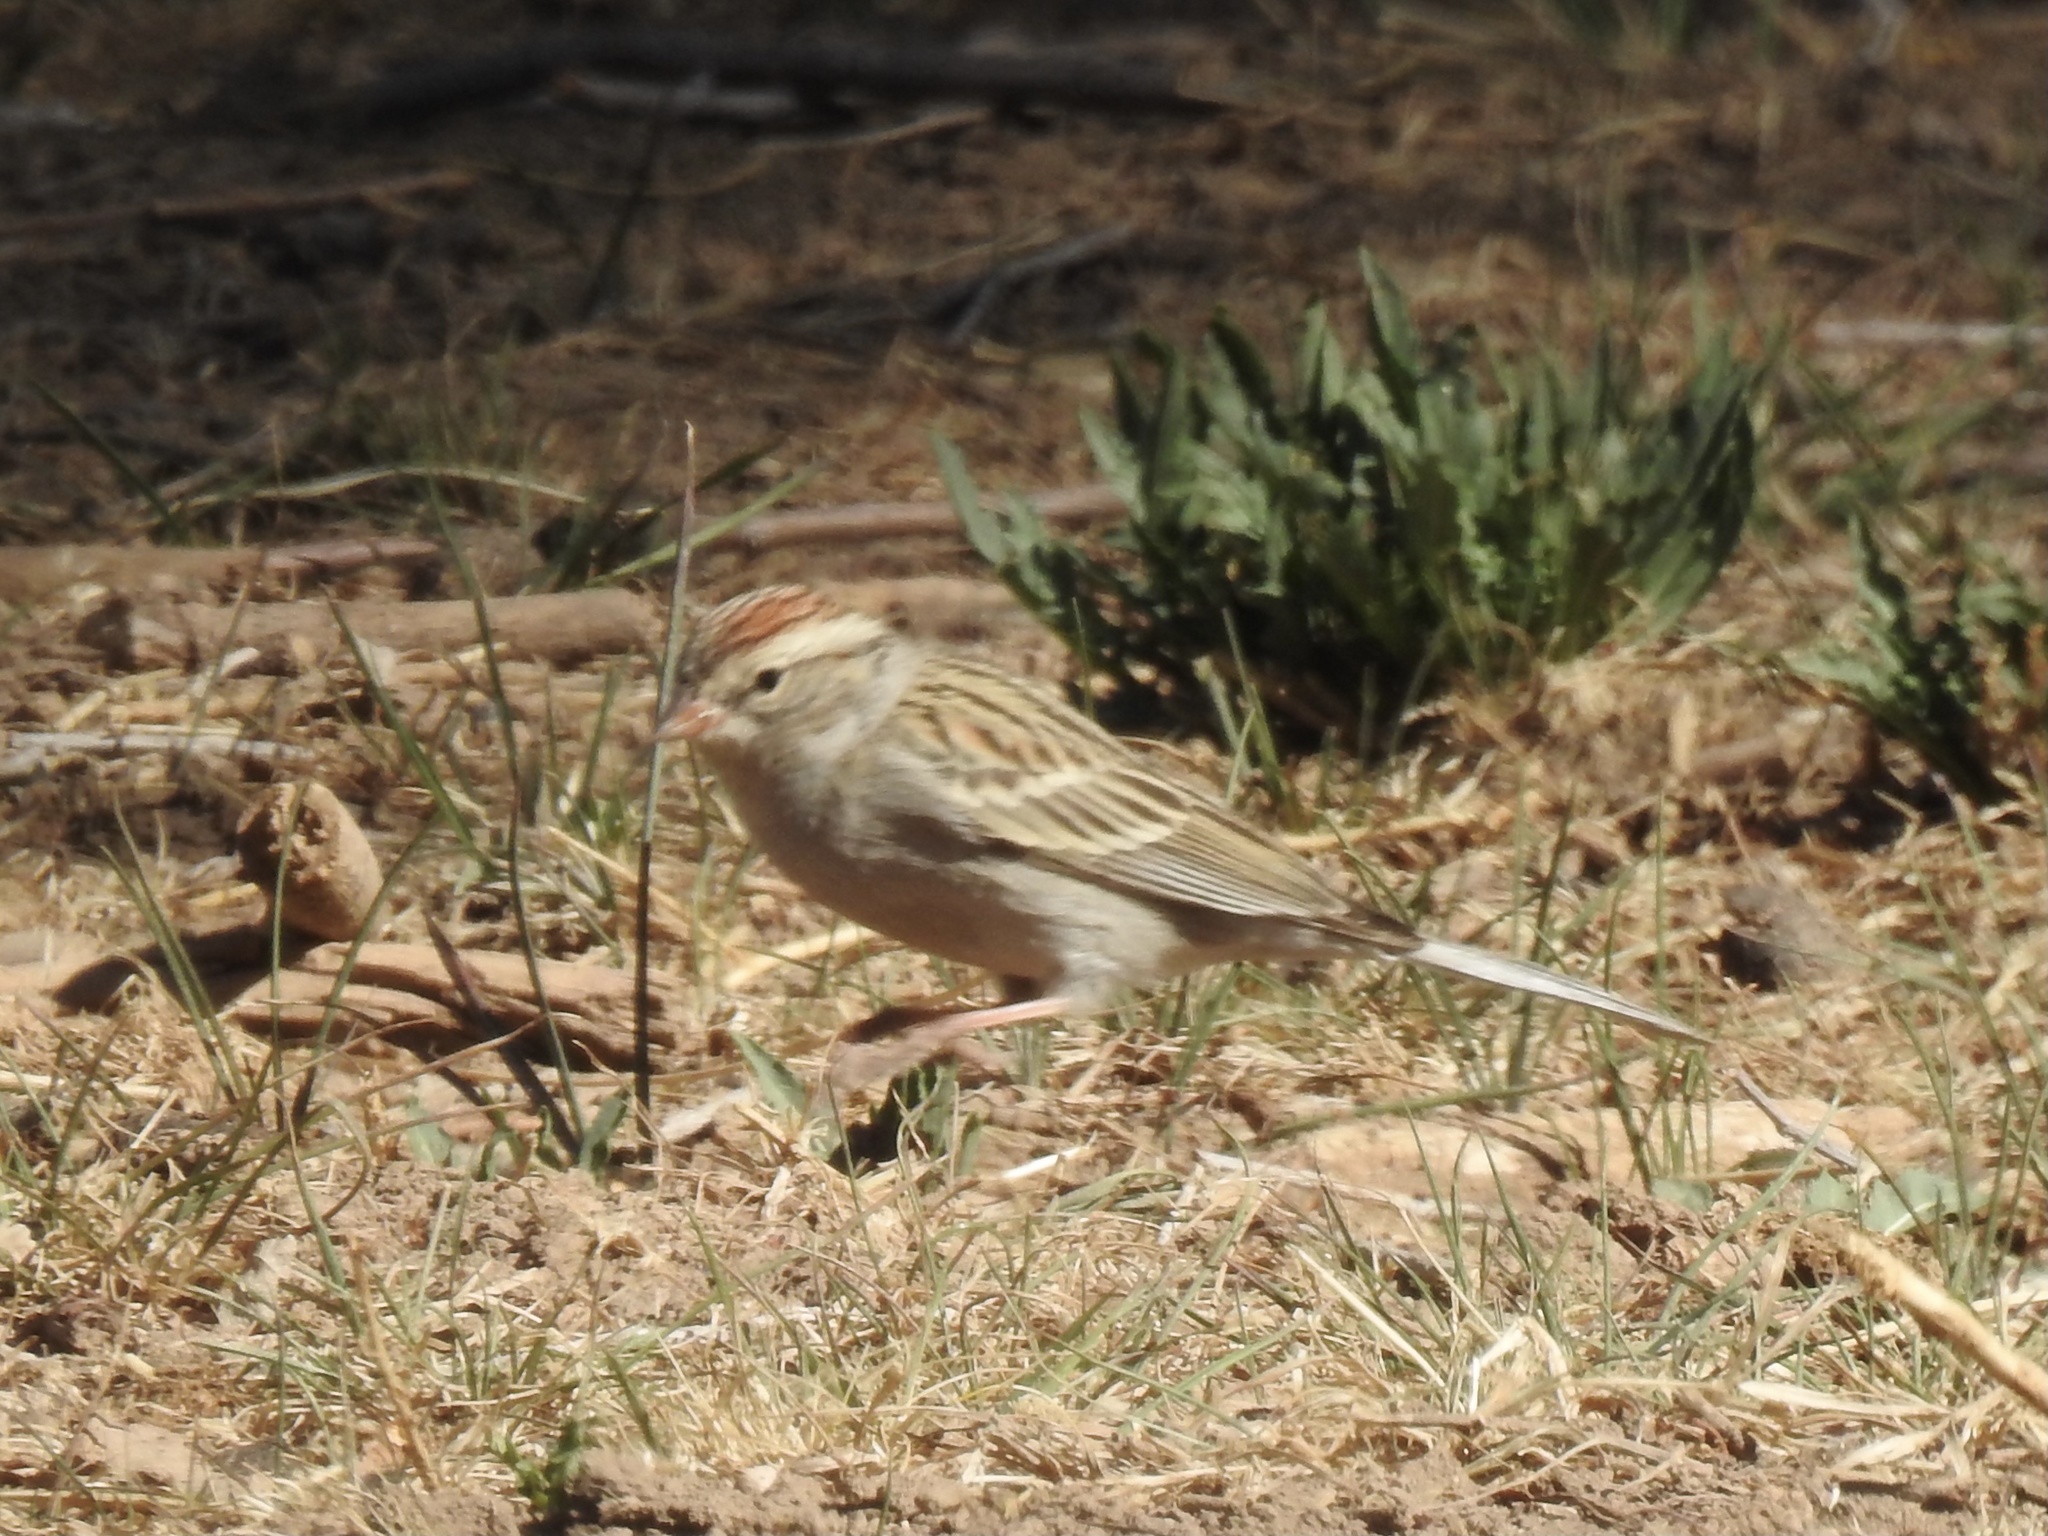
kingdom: Animalia
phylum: Chordata
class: Aves
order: Passeriformes
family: Passerellidae
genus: Spizella
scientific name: Spizella passerina
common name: Chipping sparrow
